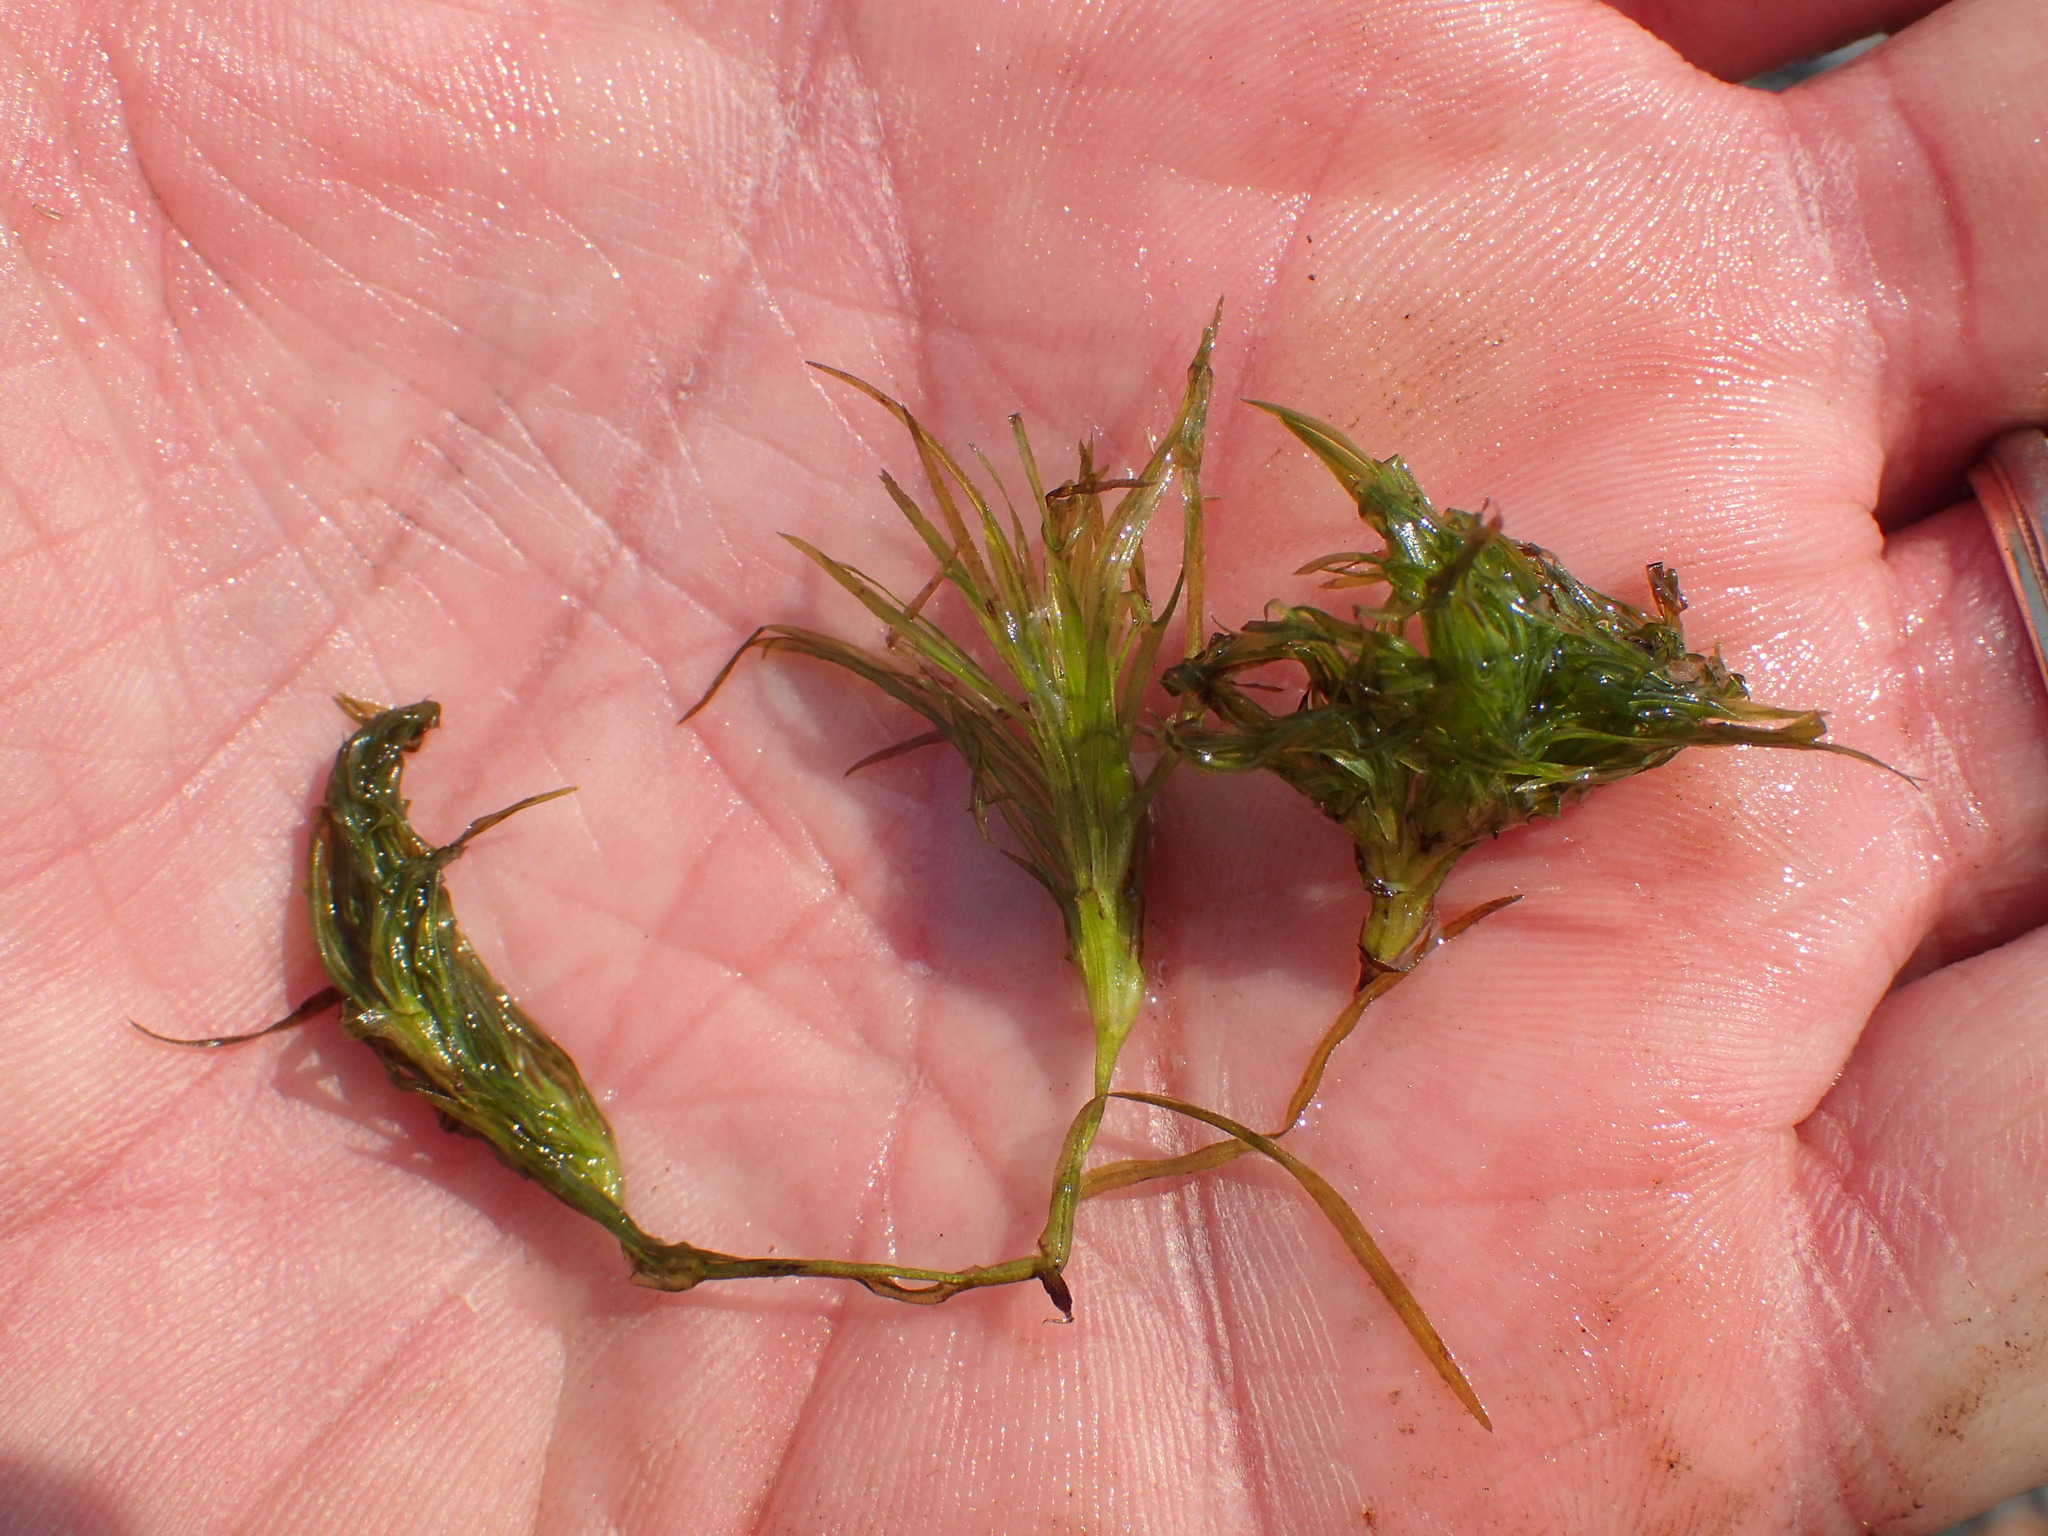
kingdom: Plantae
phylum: Tracheophyta
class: Liliopsida
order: Alismatales
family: Hydrocharitaceae
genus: Najas
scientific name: Najas flexilis
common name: Slender naiad
